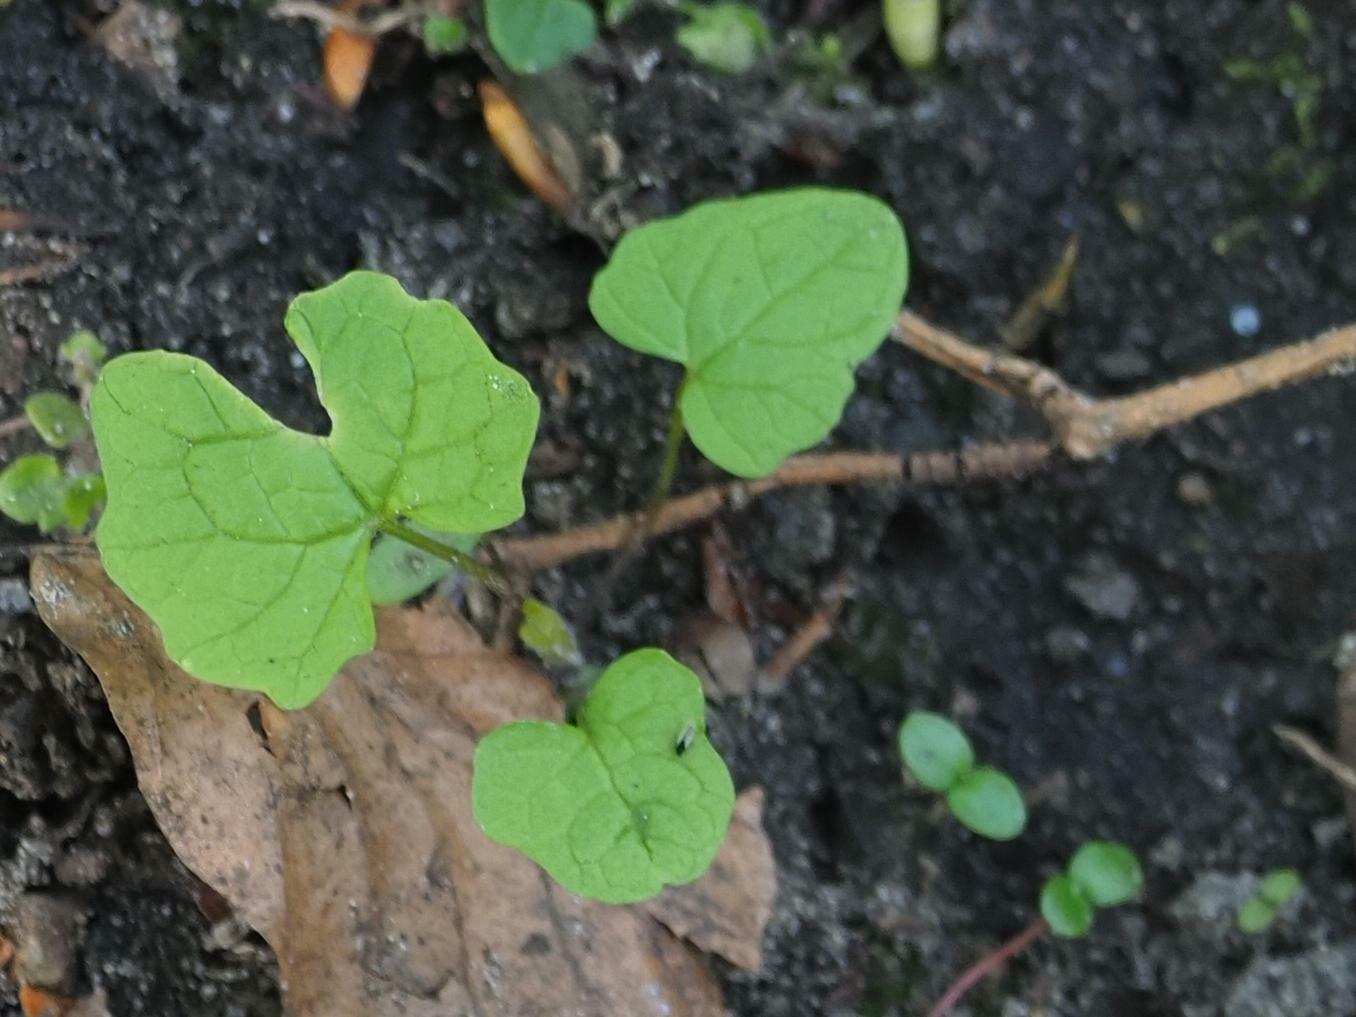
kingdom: Plantae
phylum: Tracheophyta
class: Magnoliopsida
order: Brassicales
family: Brassicaceae
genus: Alliaria
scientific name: Alliaria petiolata
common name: Garlic mustard
